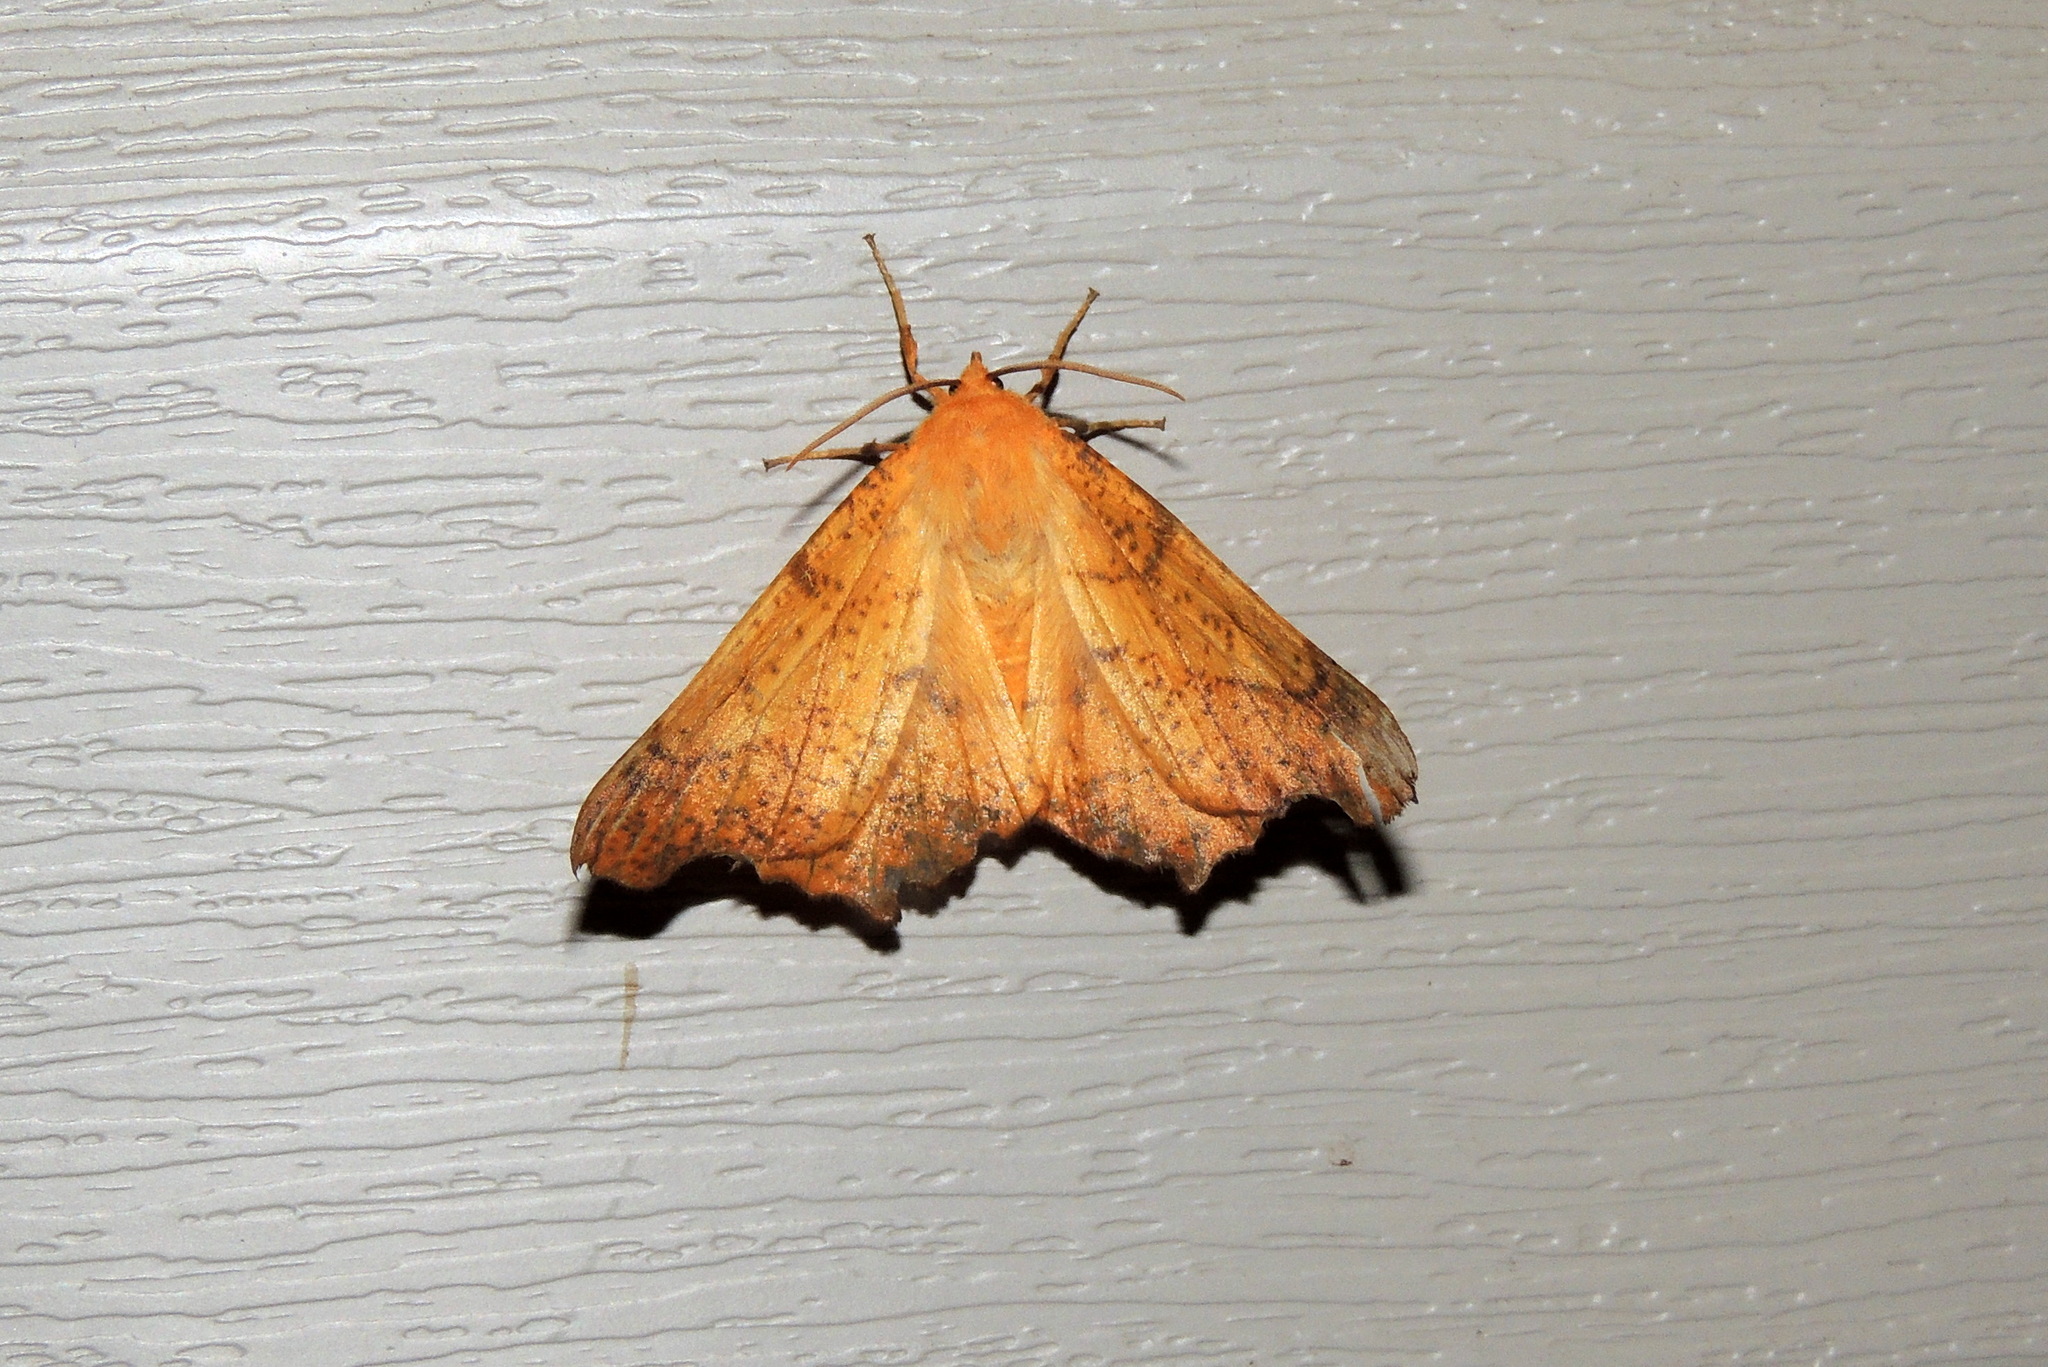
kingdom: Animalia
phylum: Arthropoda
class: Insecta
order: Lepidoptera
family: Geometridae
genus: Ennomos
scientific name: Ennomos magnaria
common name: Maple spanworm
